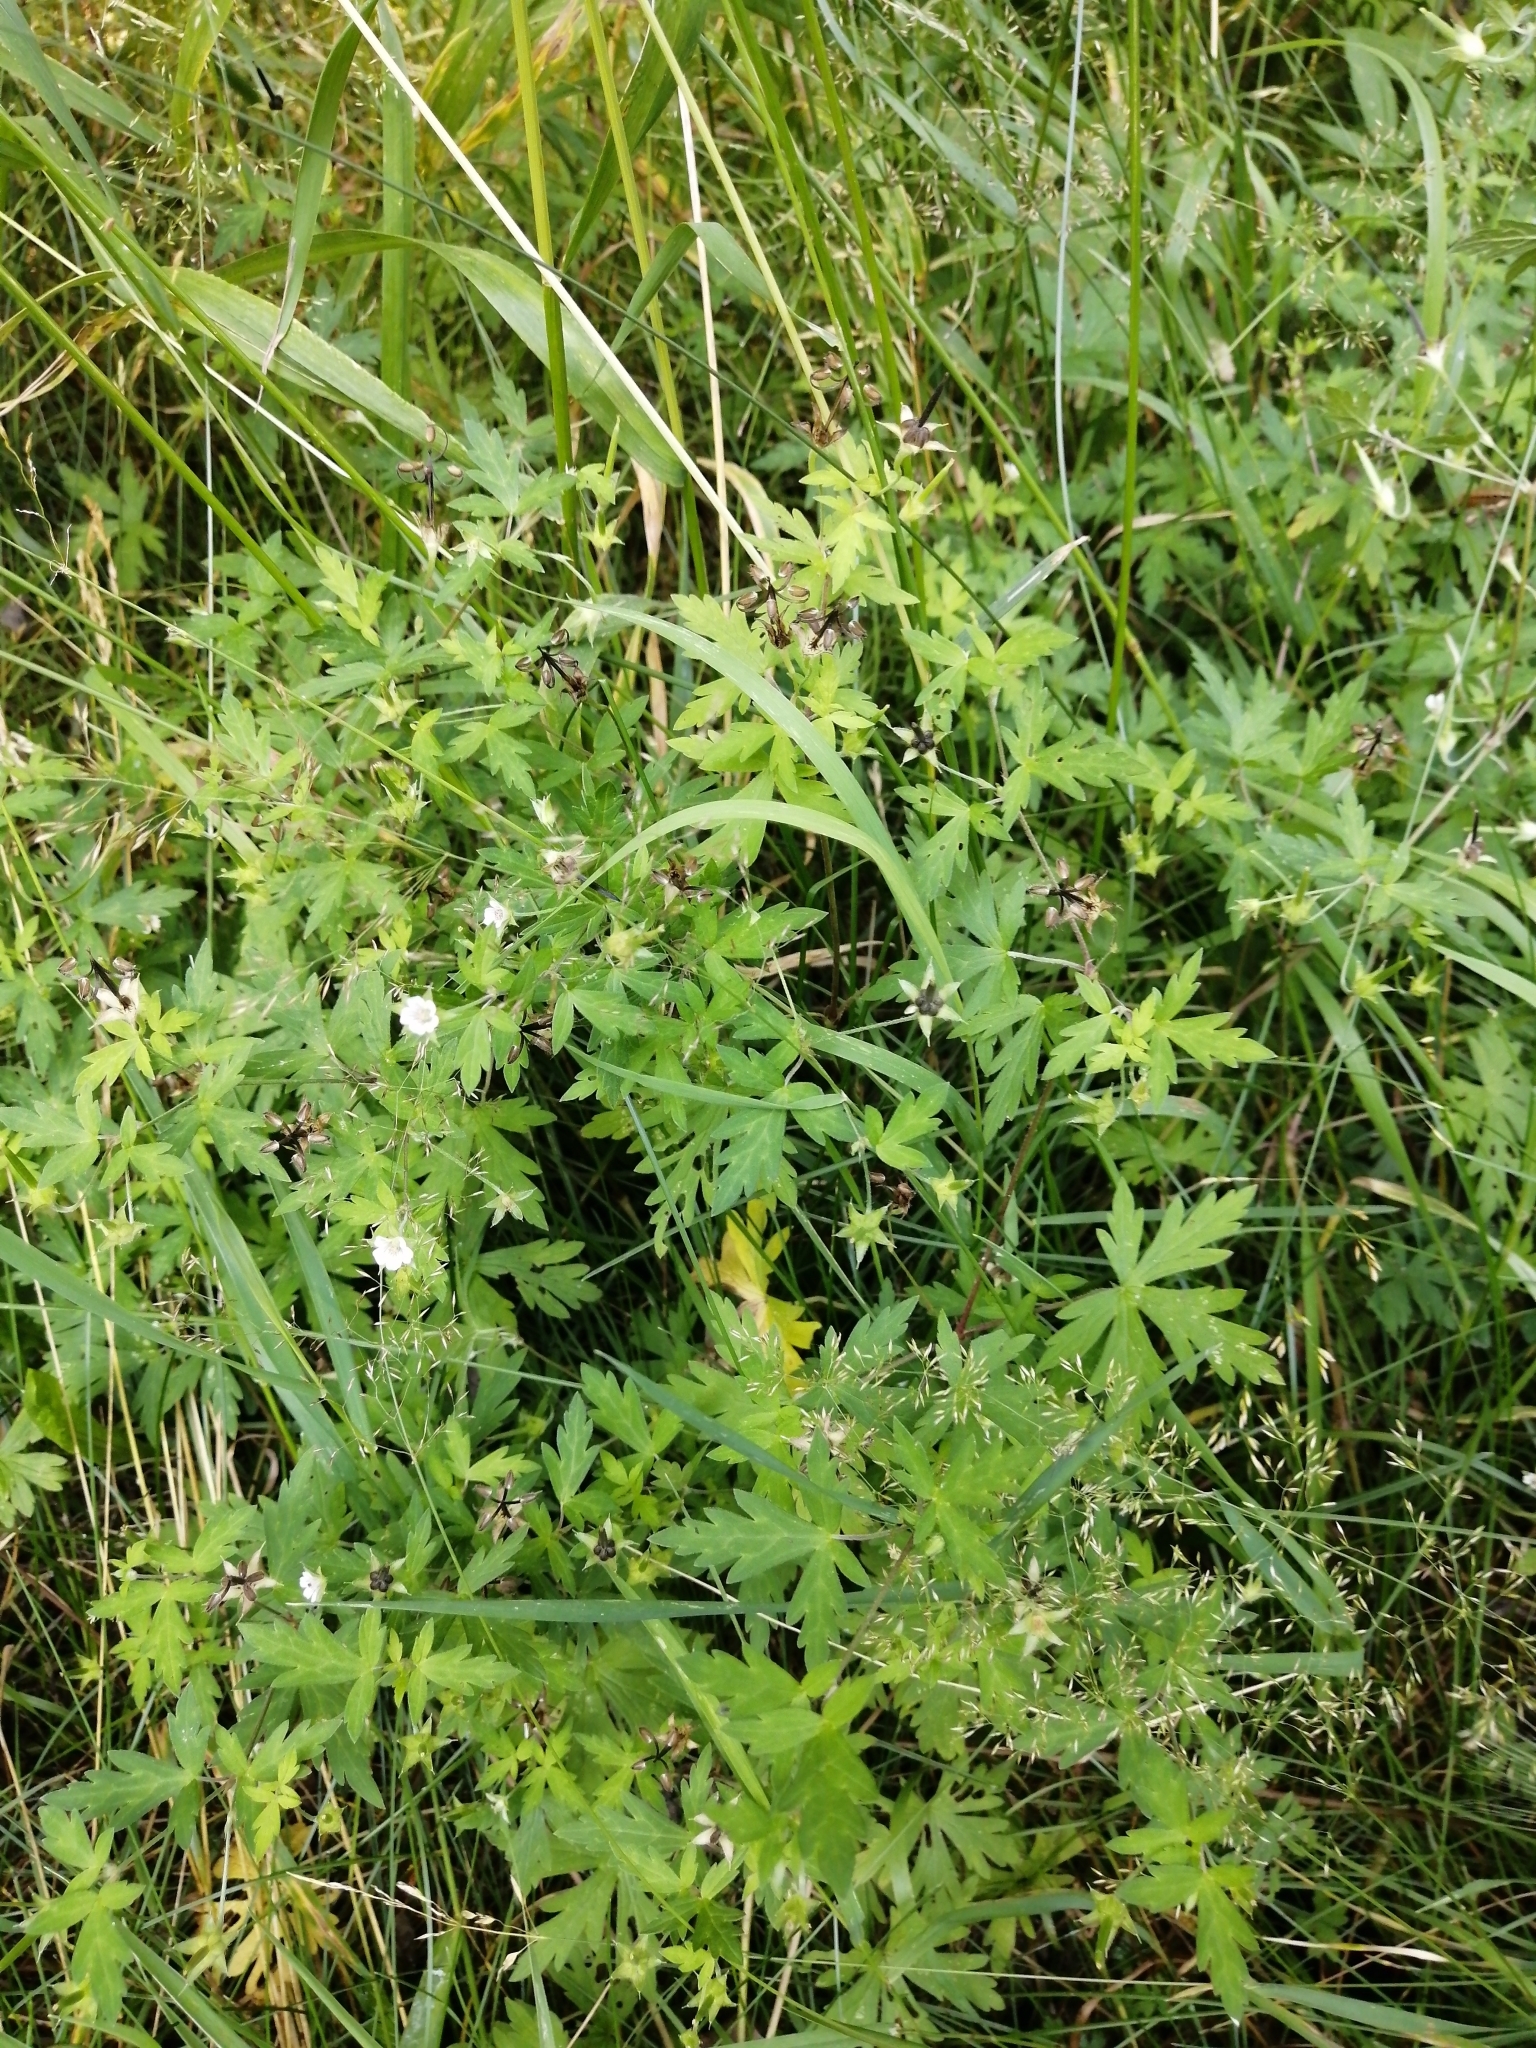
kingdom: Plantae
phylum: Tracheophyta
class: Magnoliopsida
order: Geraniales
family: Geraniaceae
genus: Geranium
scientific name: Geranium sibiricum
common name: Siberian crane's-bill
